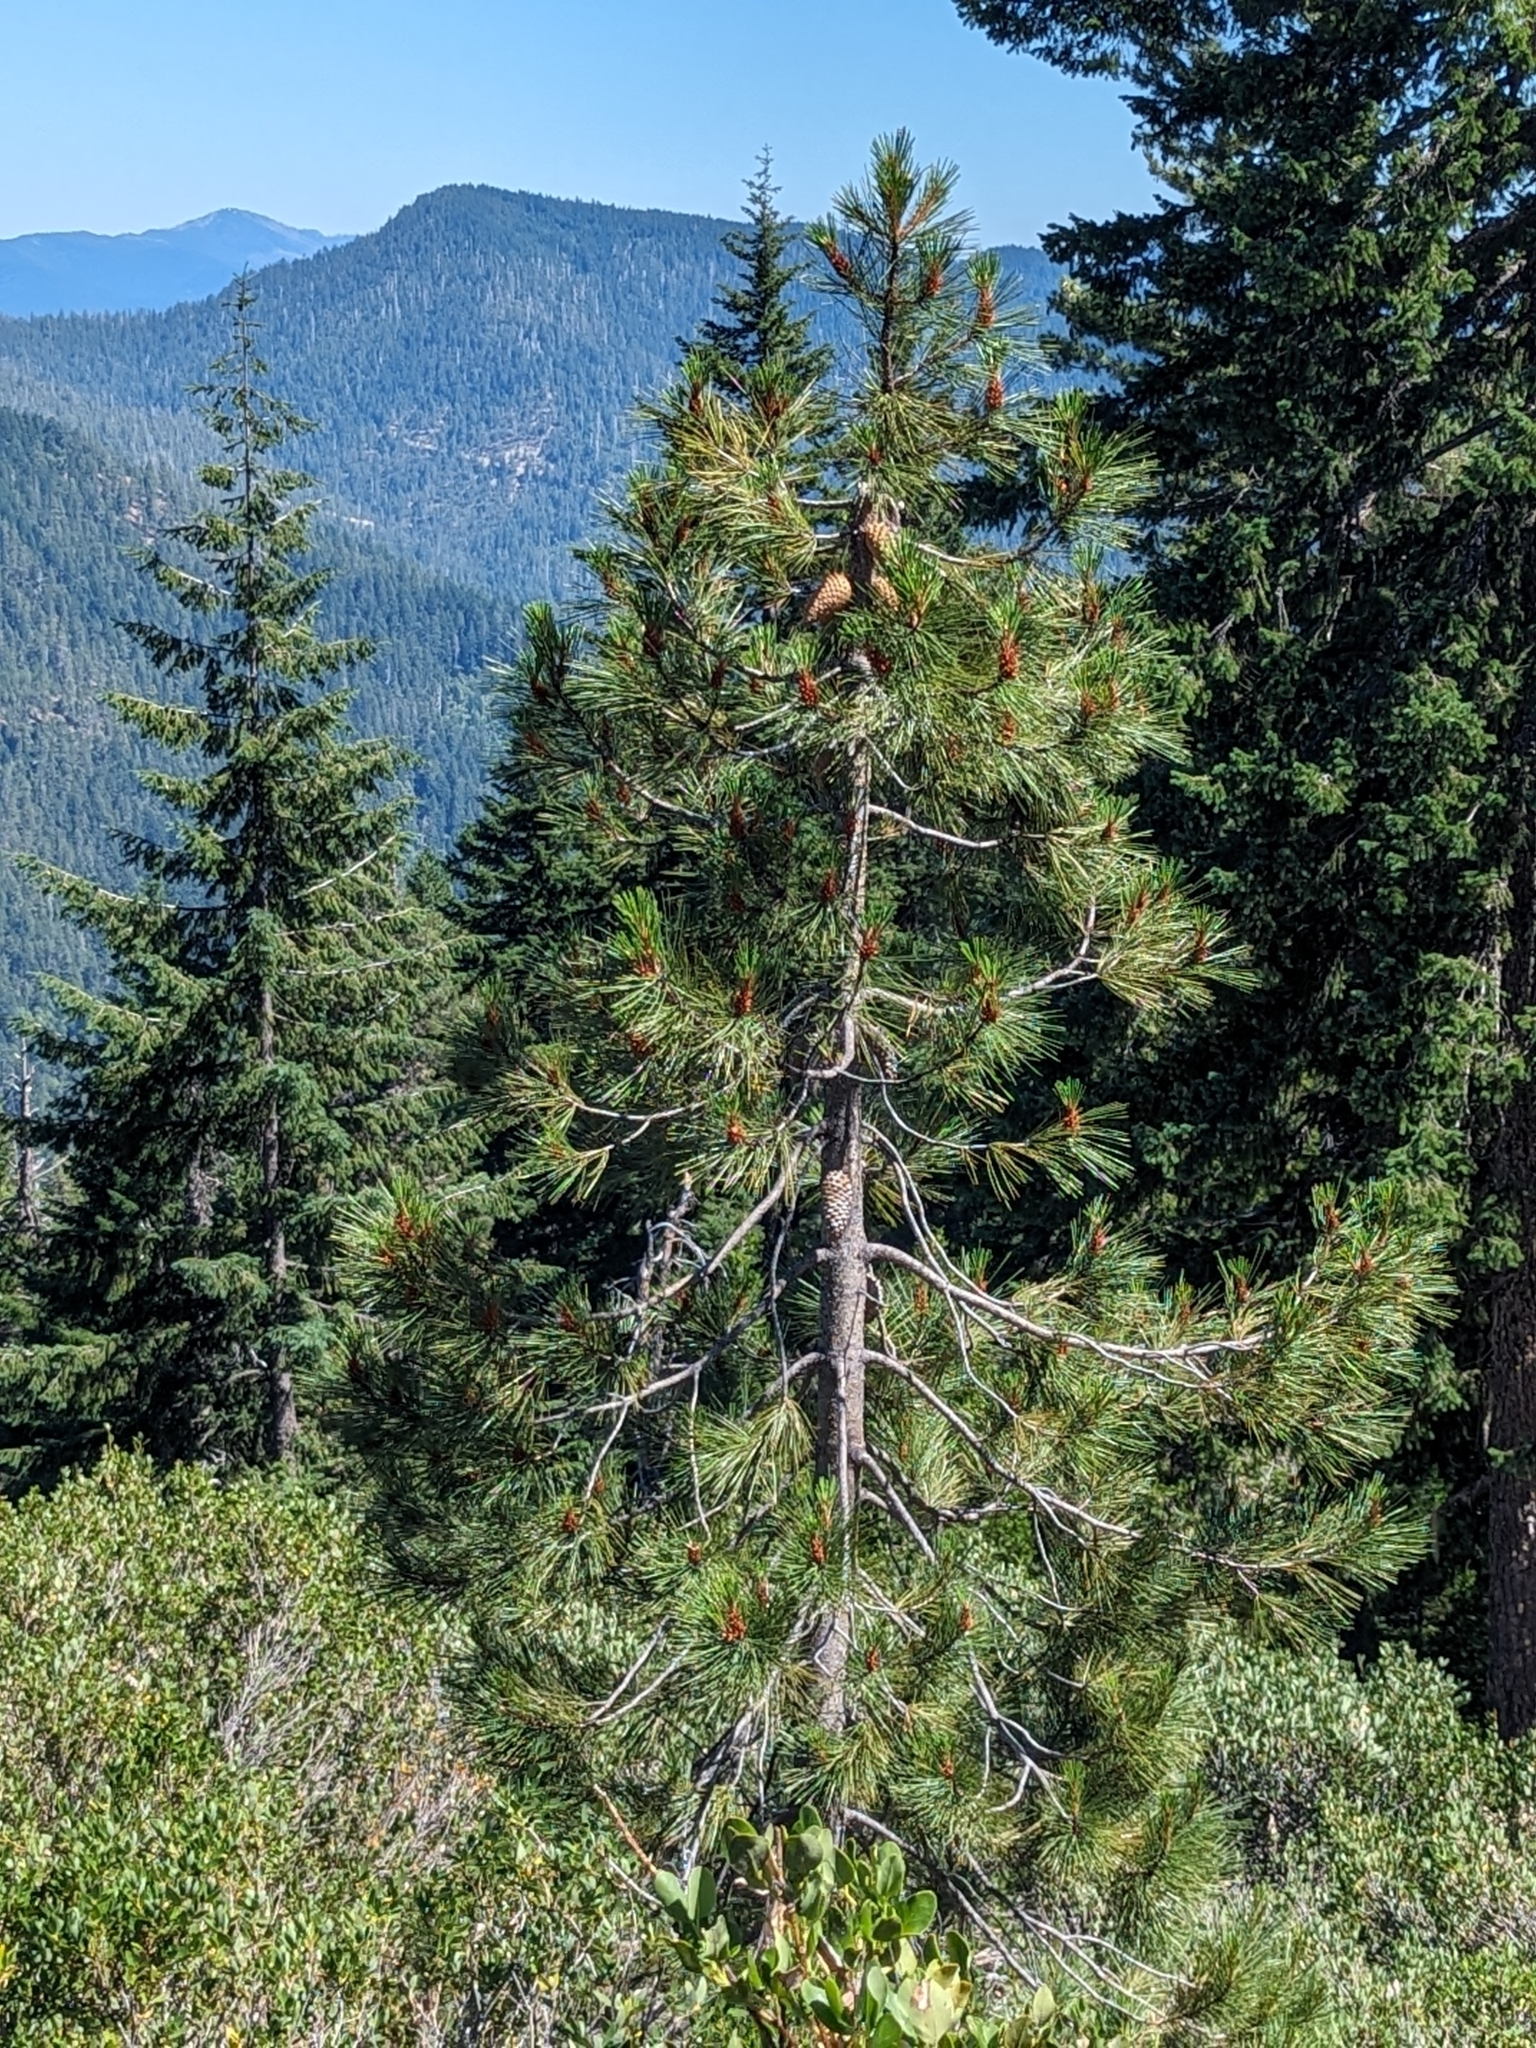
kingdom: Plantae
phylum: Tracheophyta
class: Pinopsida
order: Pinales
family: Pinaceae
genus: Pinus
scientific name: Pinus attenuata
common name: Knobcone pine
